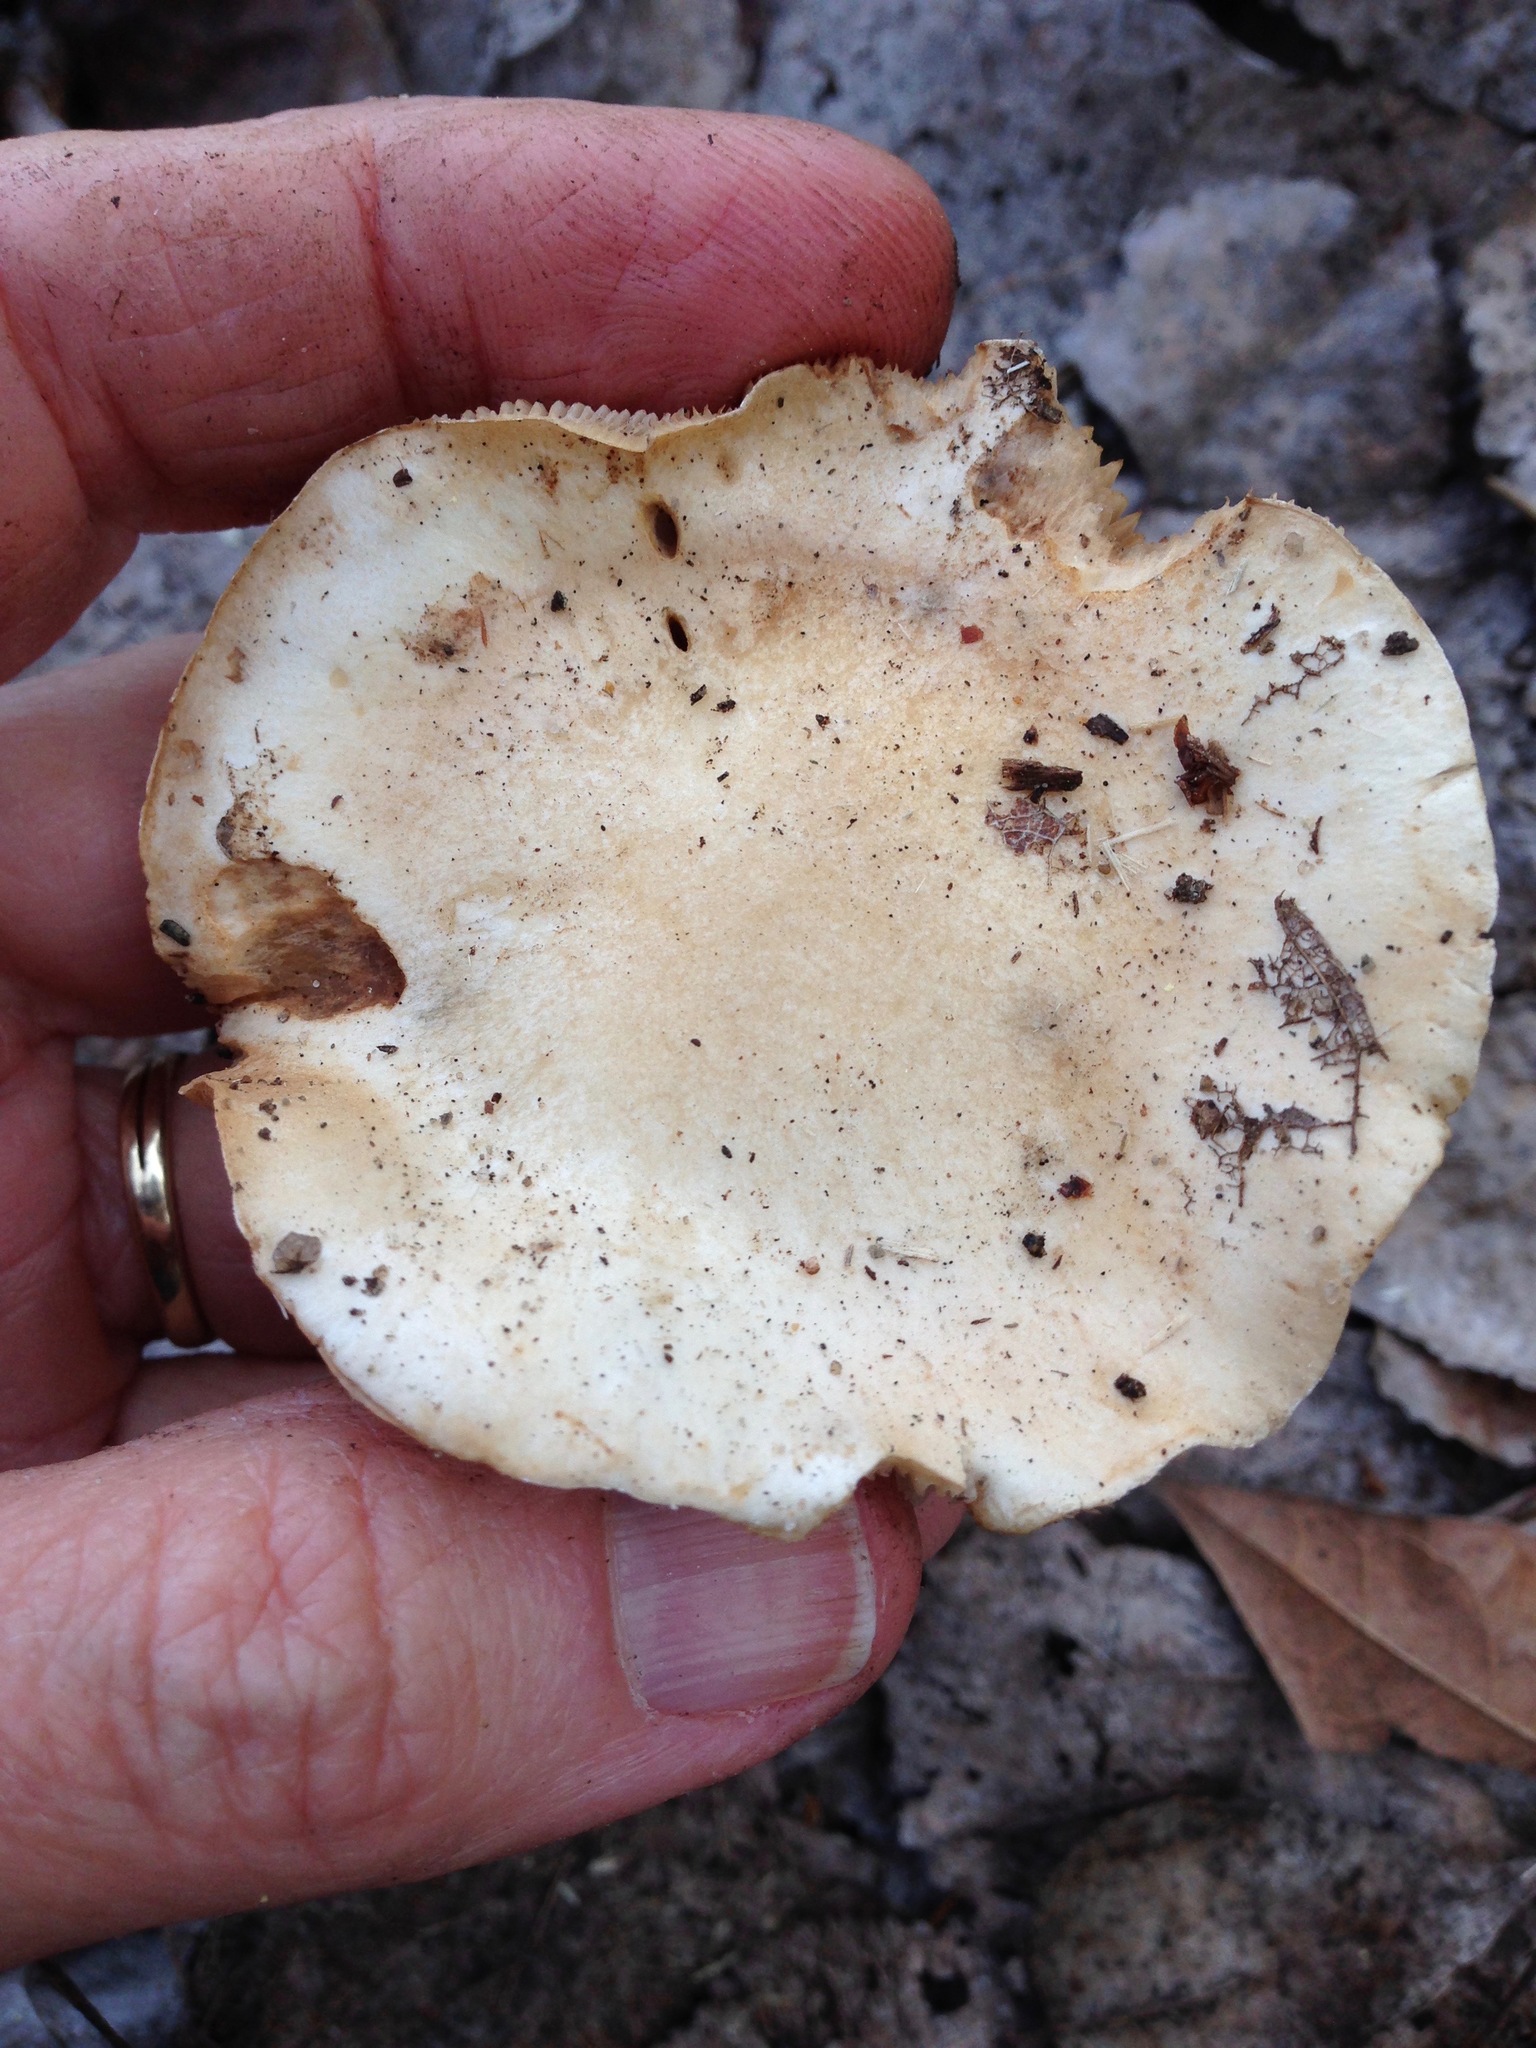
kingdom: Fungi
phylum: Basidiomycota
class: Agaricomycetes
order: Agaricales
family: Hymenogastraceae
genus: Hebeloma
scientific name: Hebeloma crustuliniforme
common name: Poison pie
